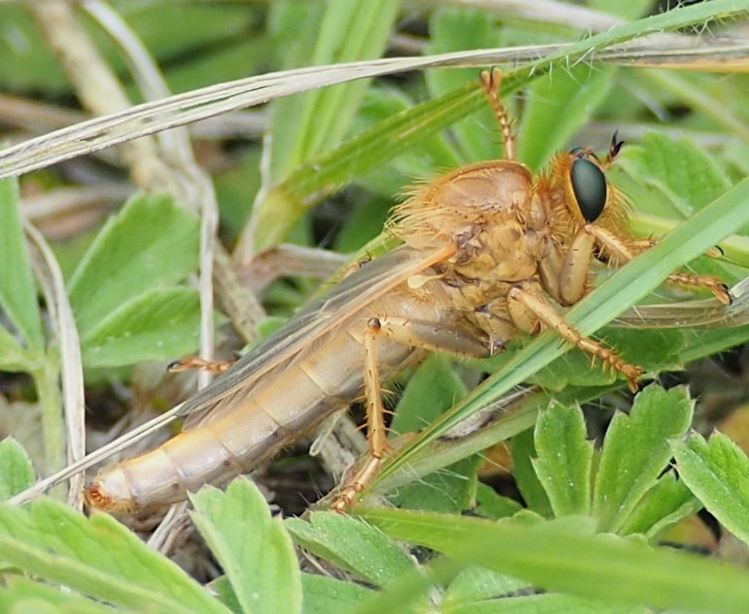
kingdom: Animalia
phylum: Arthropoda
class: Insecta
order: Diptera
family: Asilidae
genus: Stenopogon
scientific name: Stenopogon sabaudus
